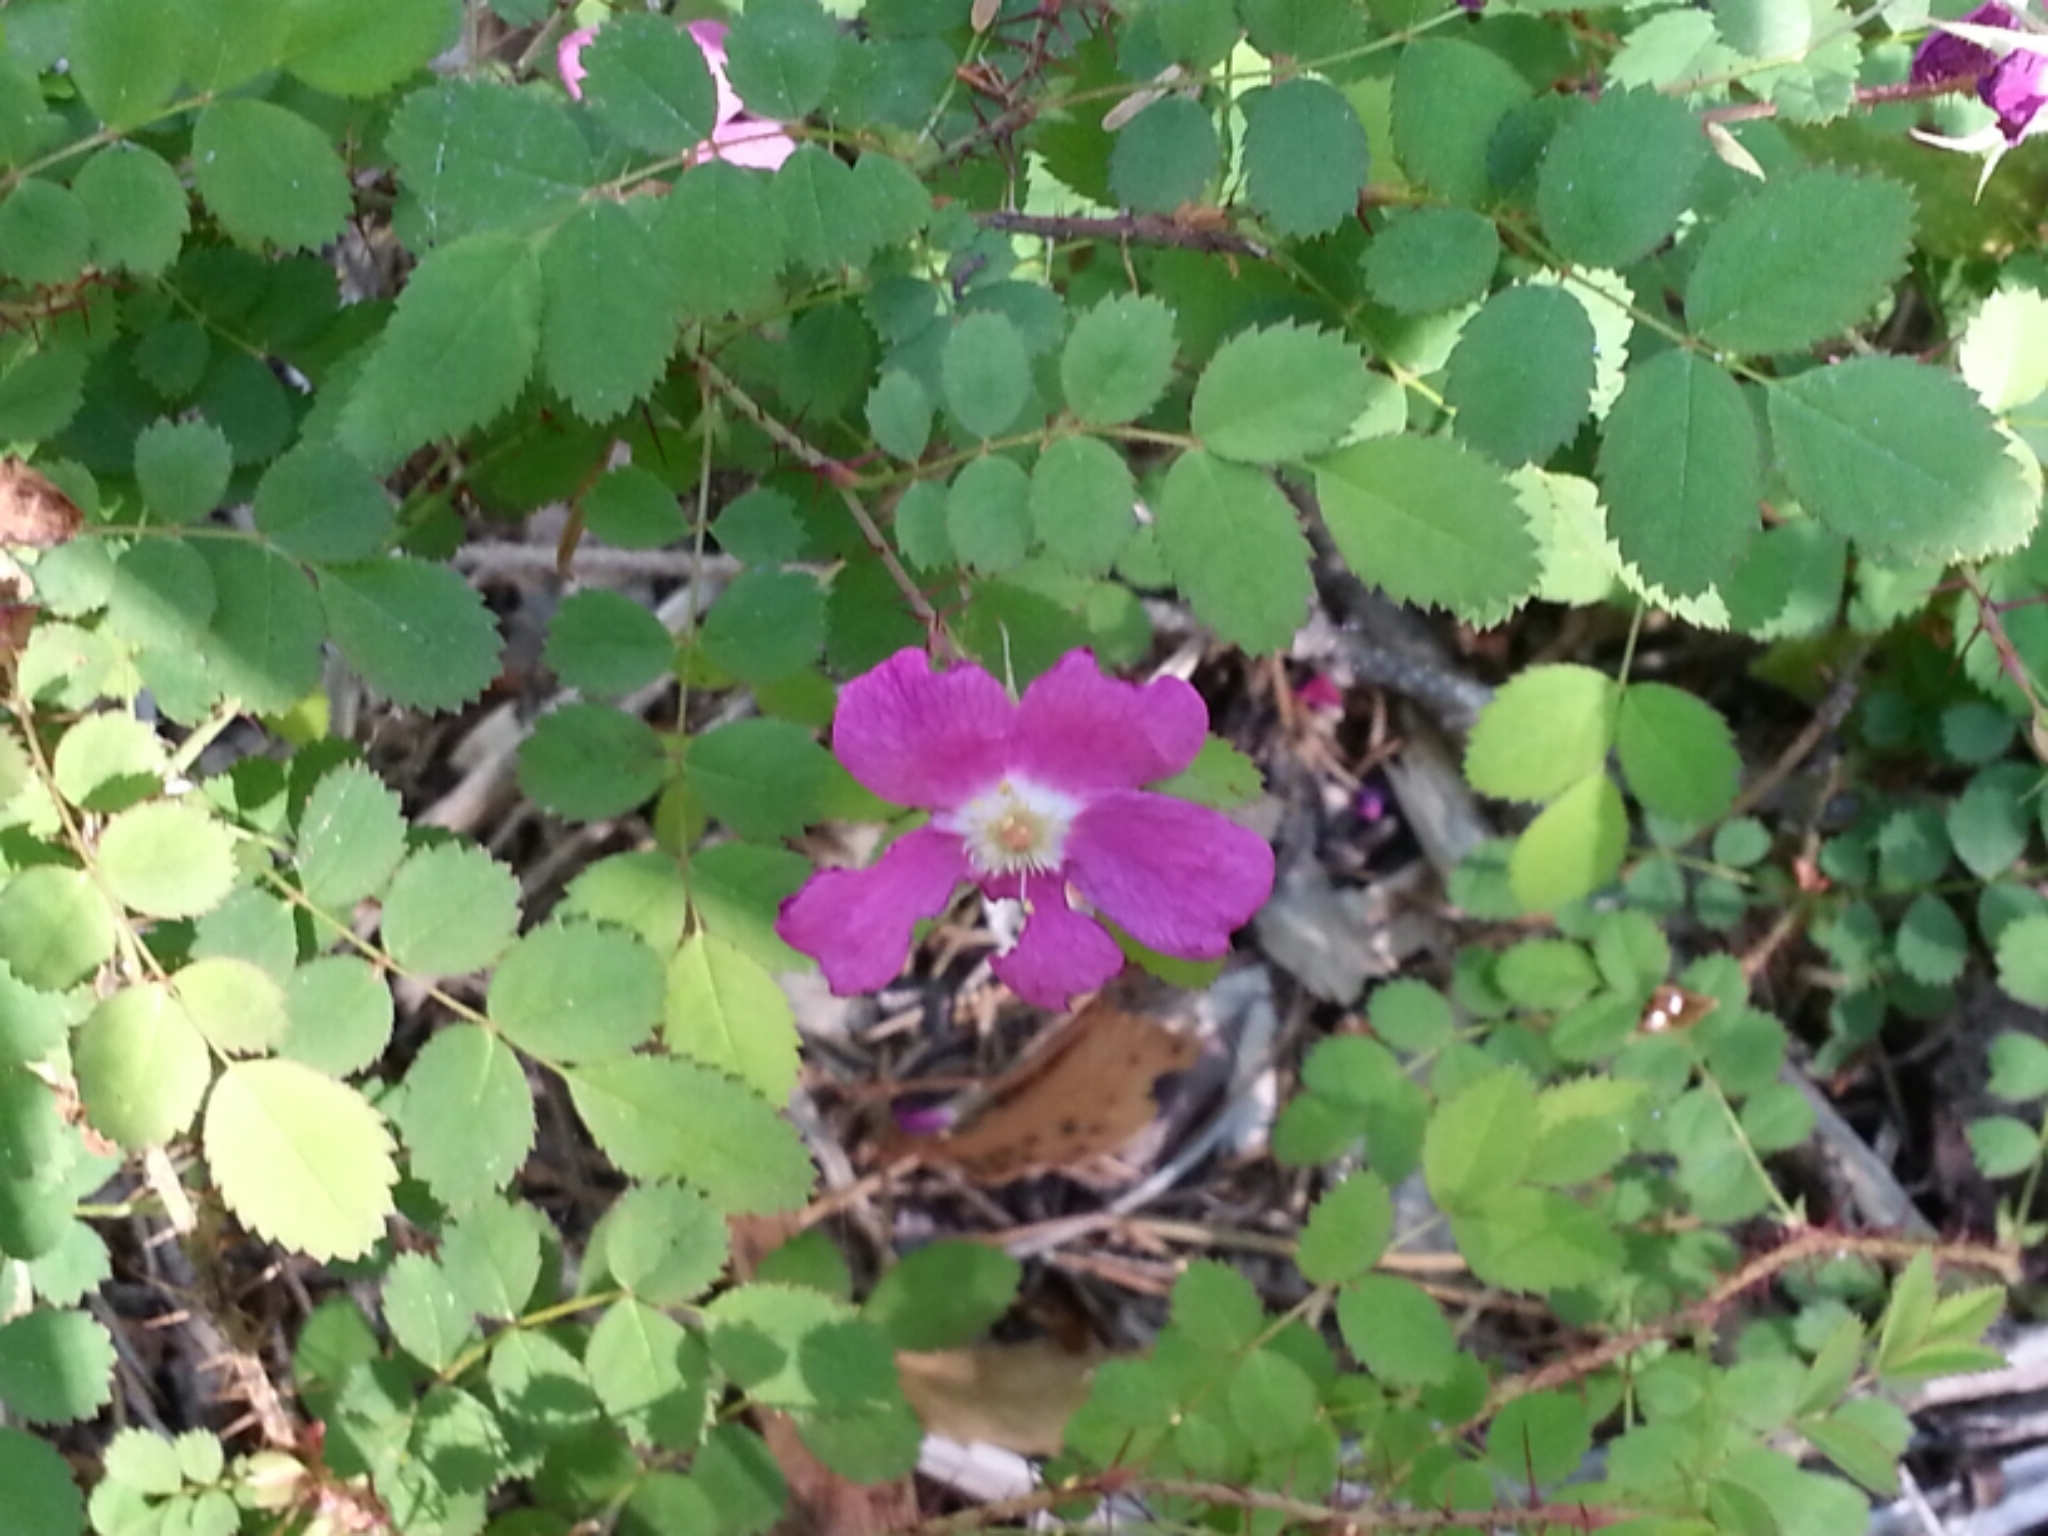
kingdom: Plantae
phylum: Tracheophyta
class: Magnoliopsida
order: Rosales
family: Rosaceae
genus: Rosa
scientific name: Rosa gymnocarpa
